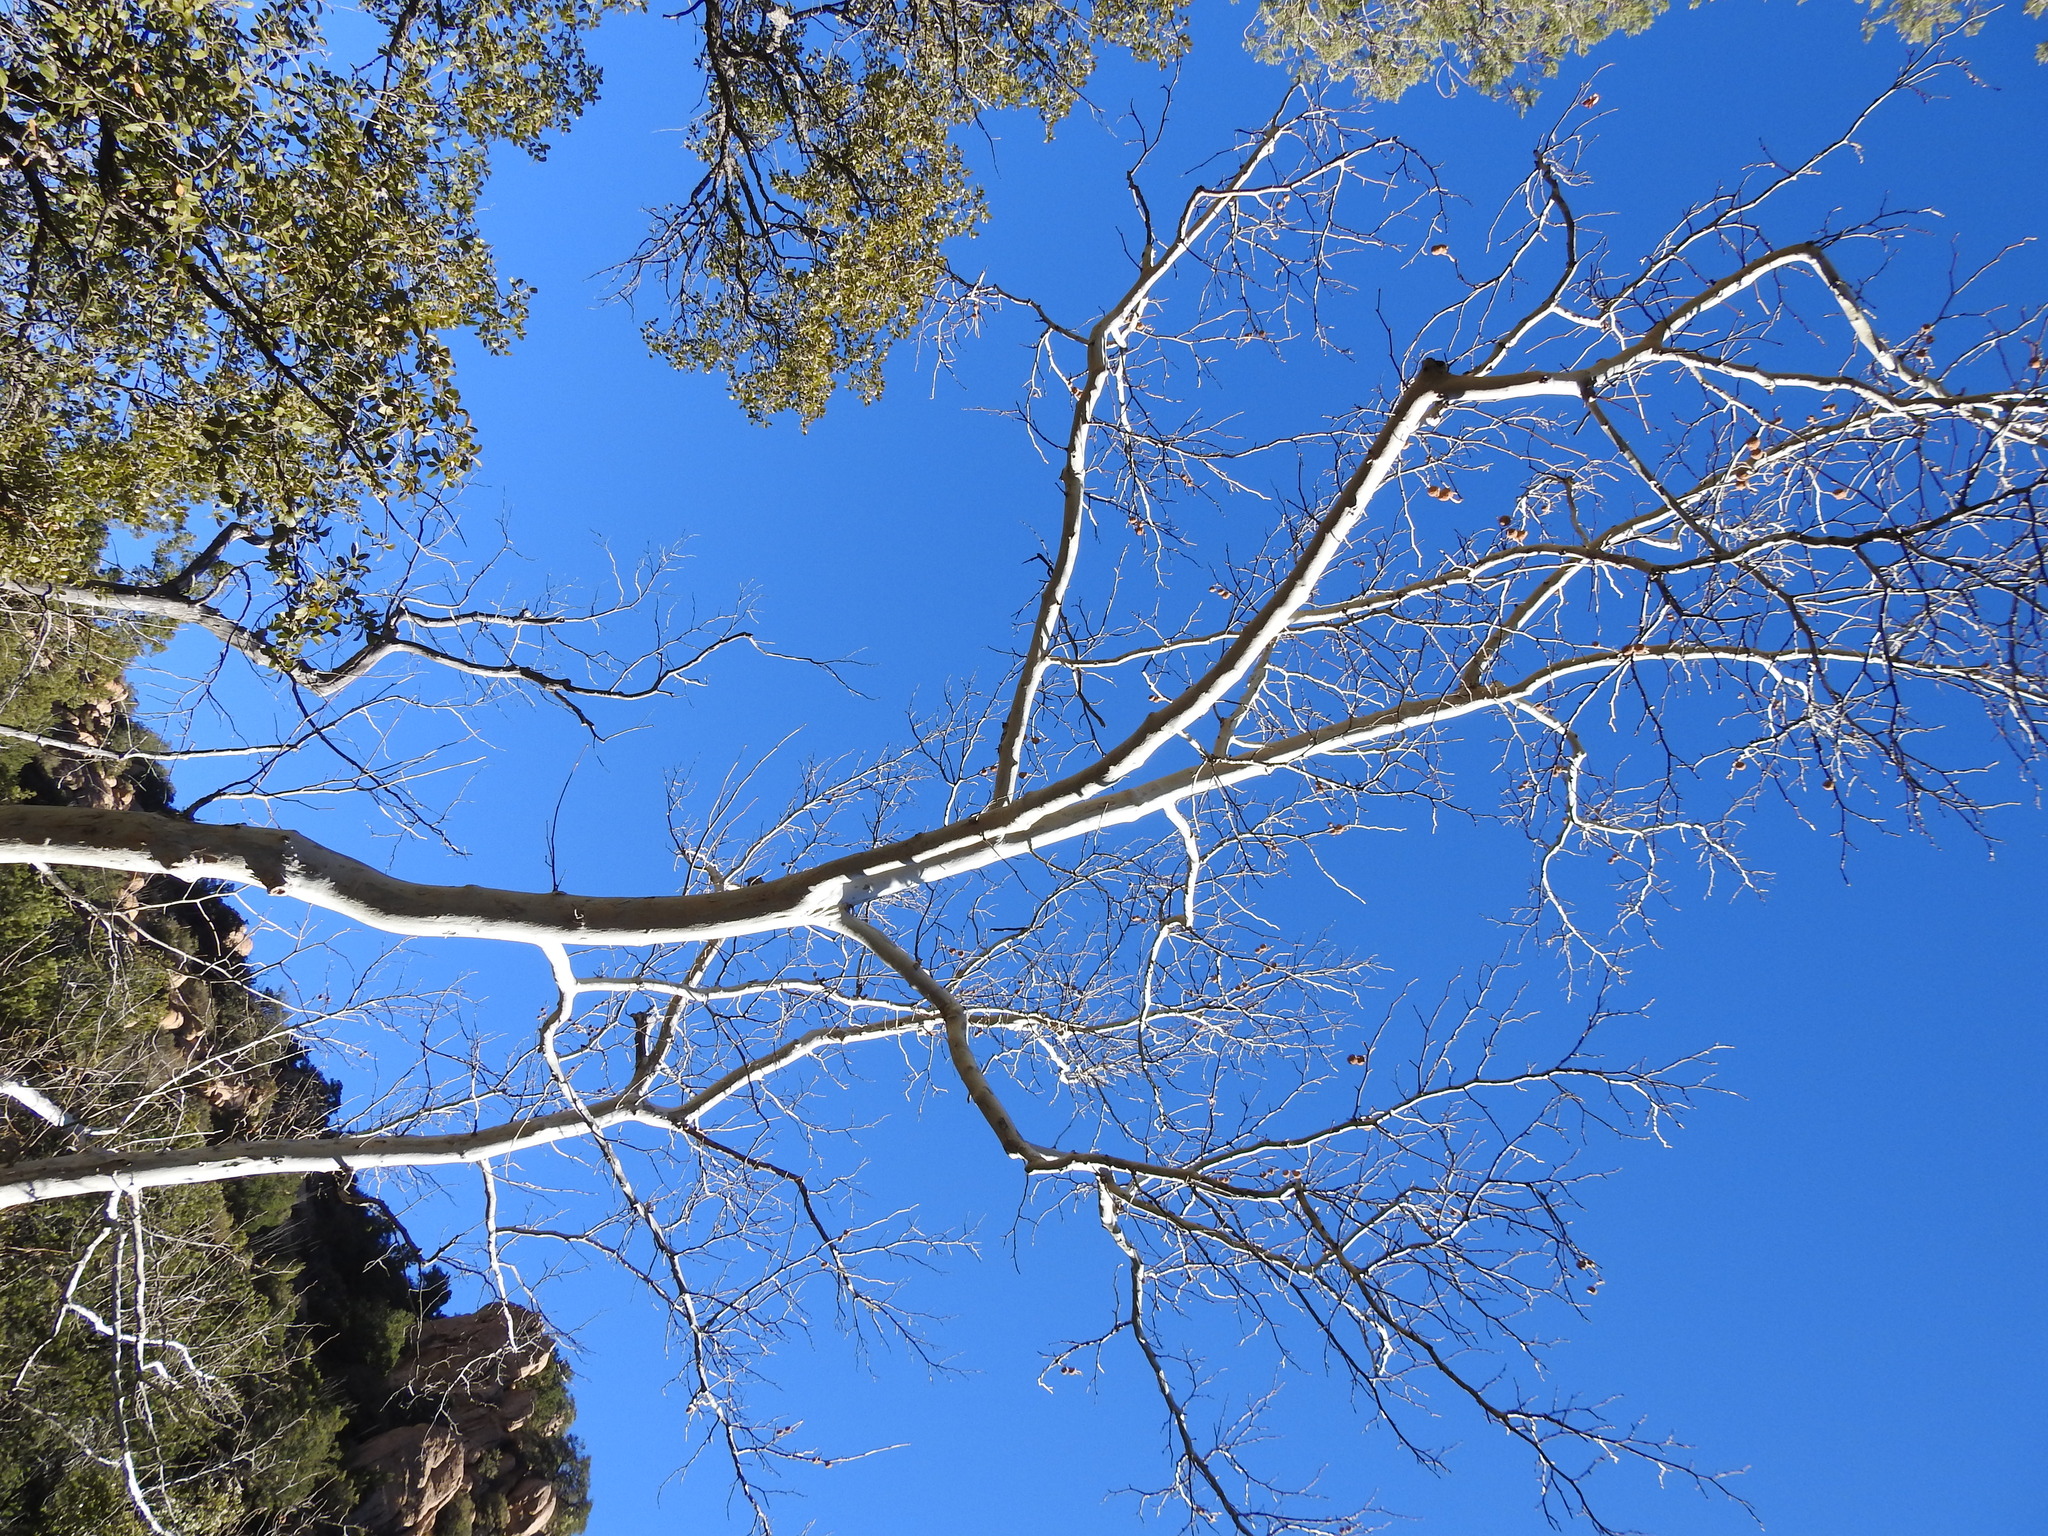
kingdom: Plantae
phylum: Tracheophyta
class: Magnoliopsida
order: Proteales
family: Platanaceae
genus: Platanus
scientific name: Platanus wrightii
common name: Arizona sycamore
